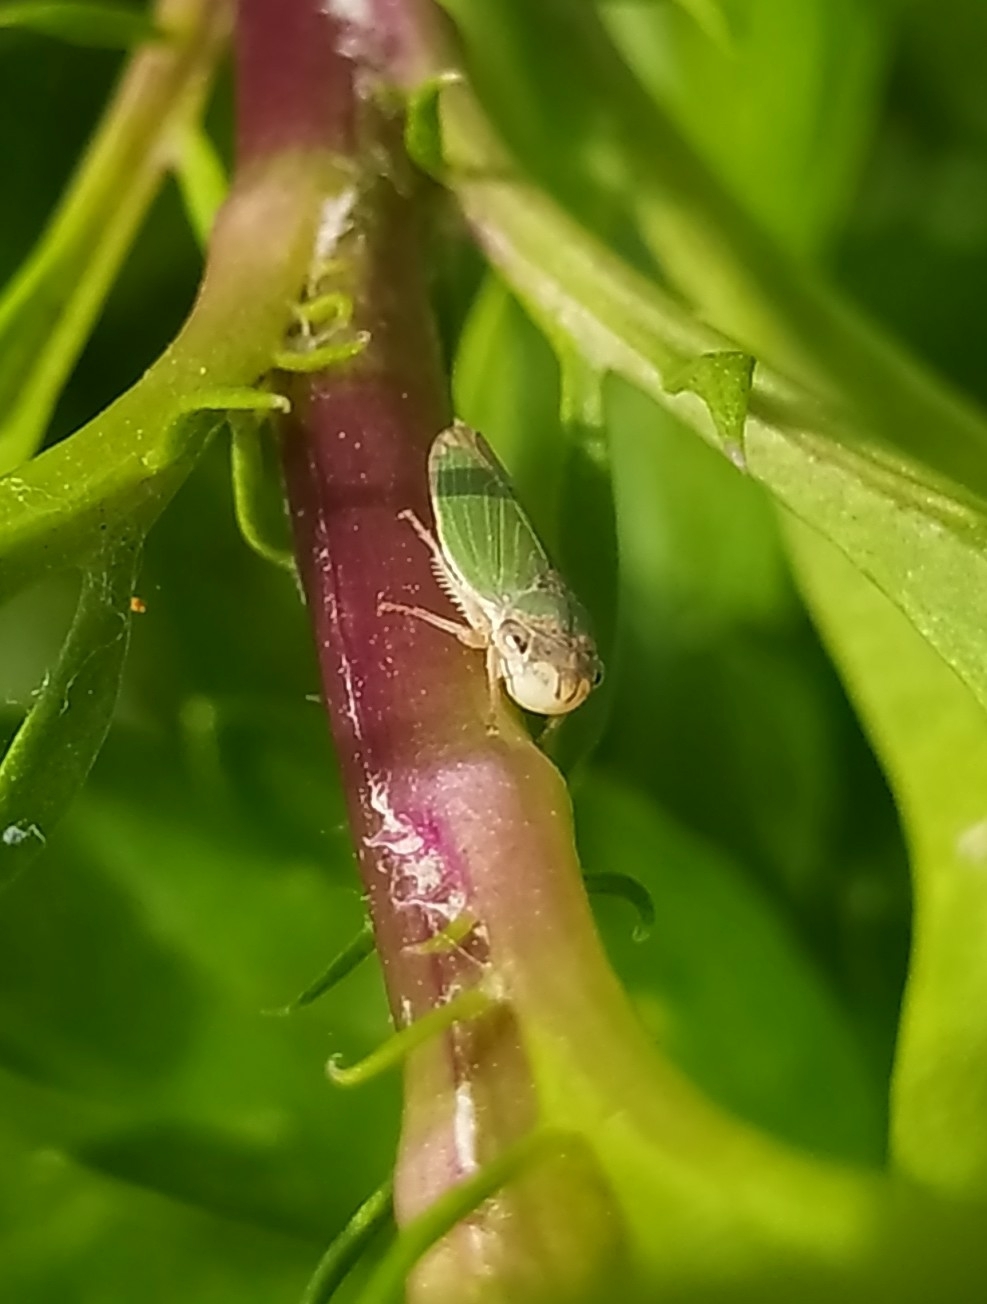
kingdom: Animalia
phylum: Arthropoda
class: Insecta
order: Hemiptera
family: Cicadellidae
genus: Bucephalogonia
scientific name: Bucephalogonia xanthophis
